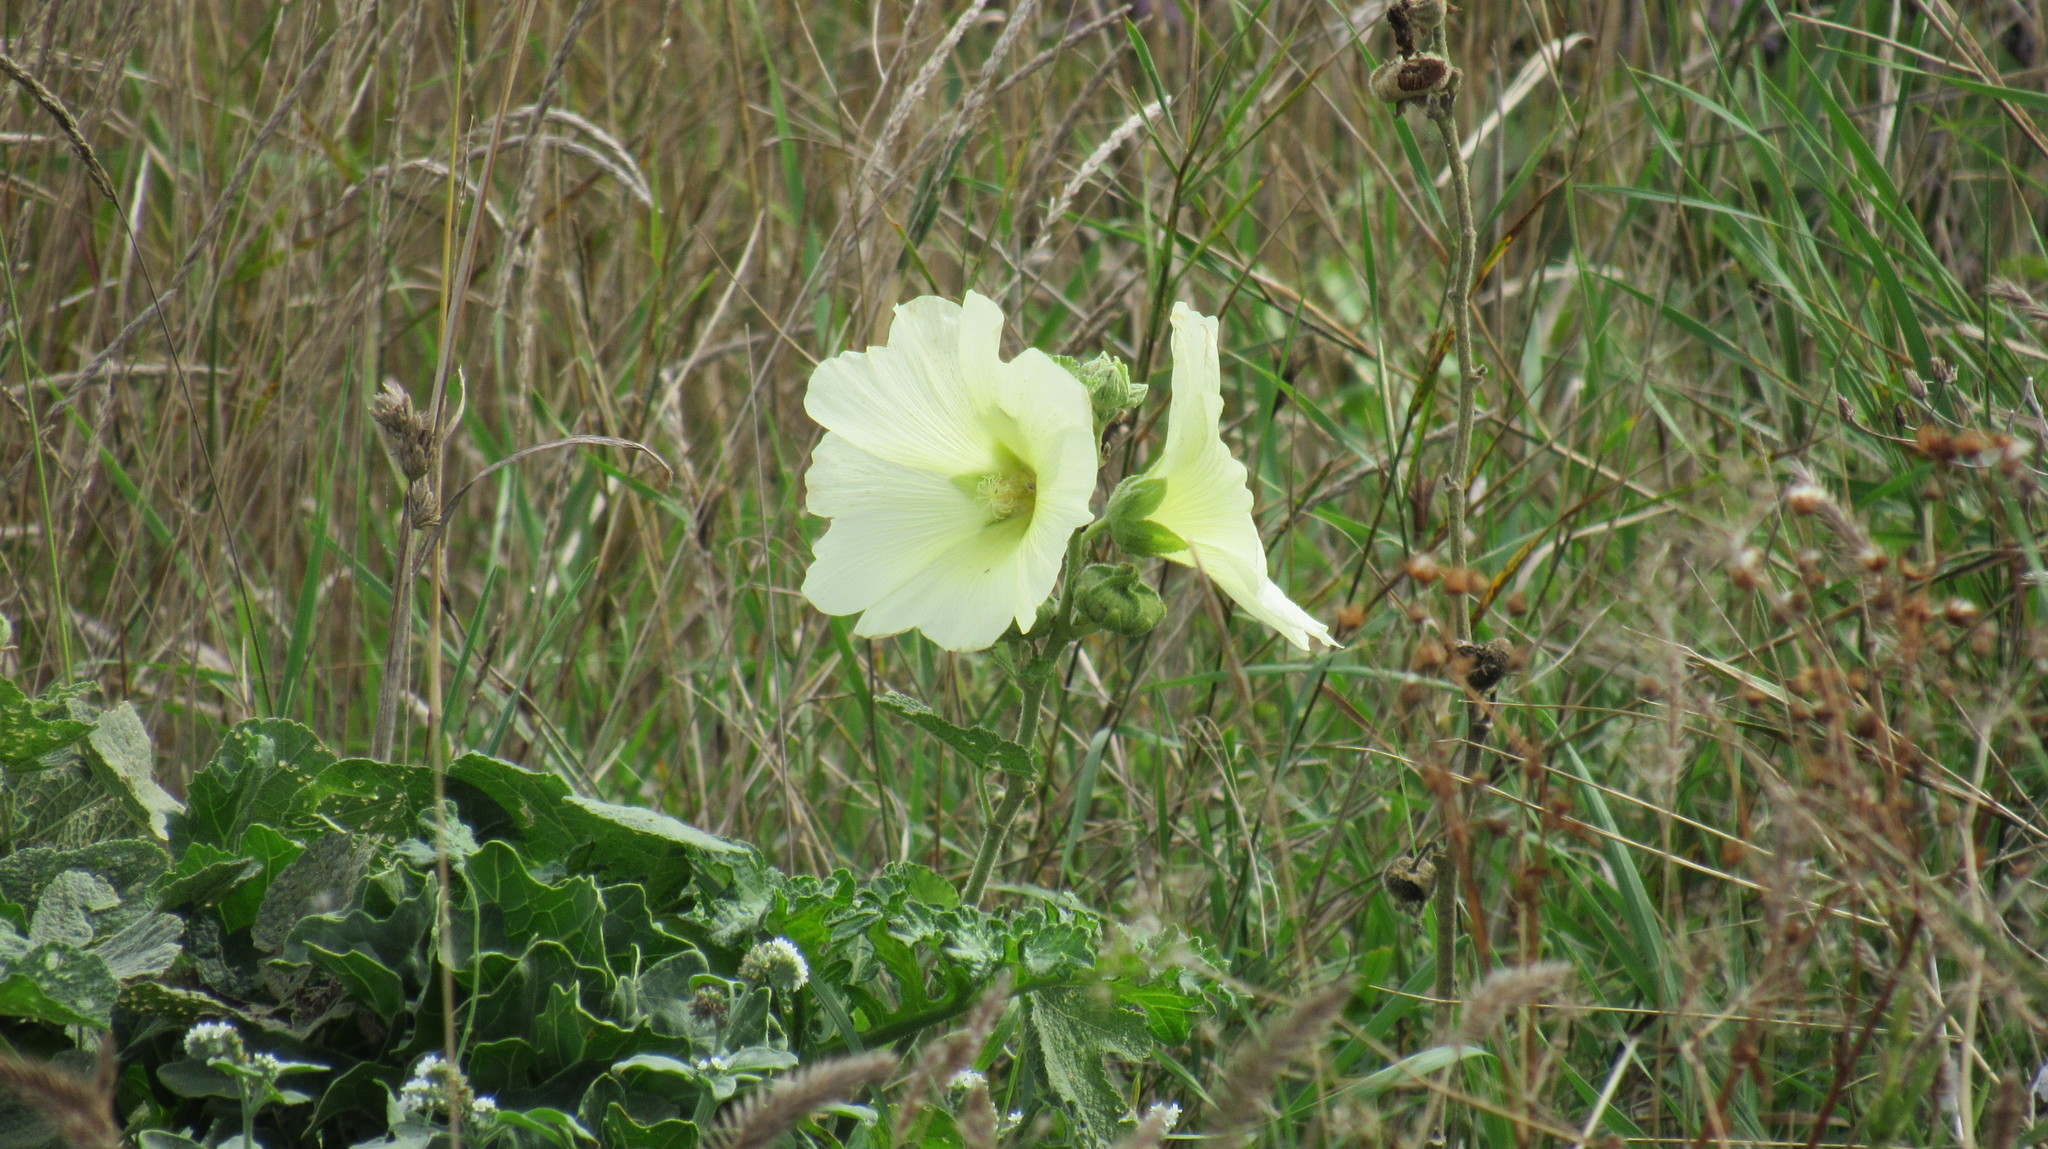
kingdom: Plantae
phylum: Tracheophyta
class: Magnoliopsida
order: Malvales
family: Malvaceae
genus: Alcea
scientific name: Alcea rugosa
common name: Russian hollyhock
